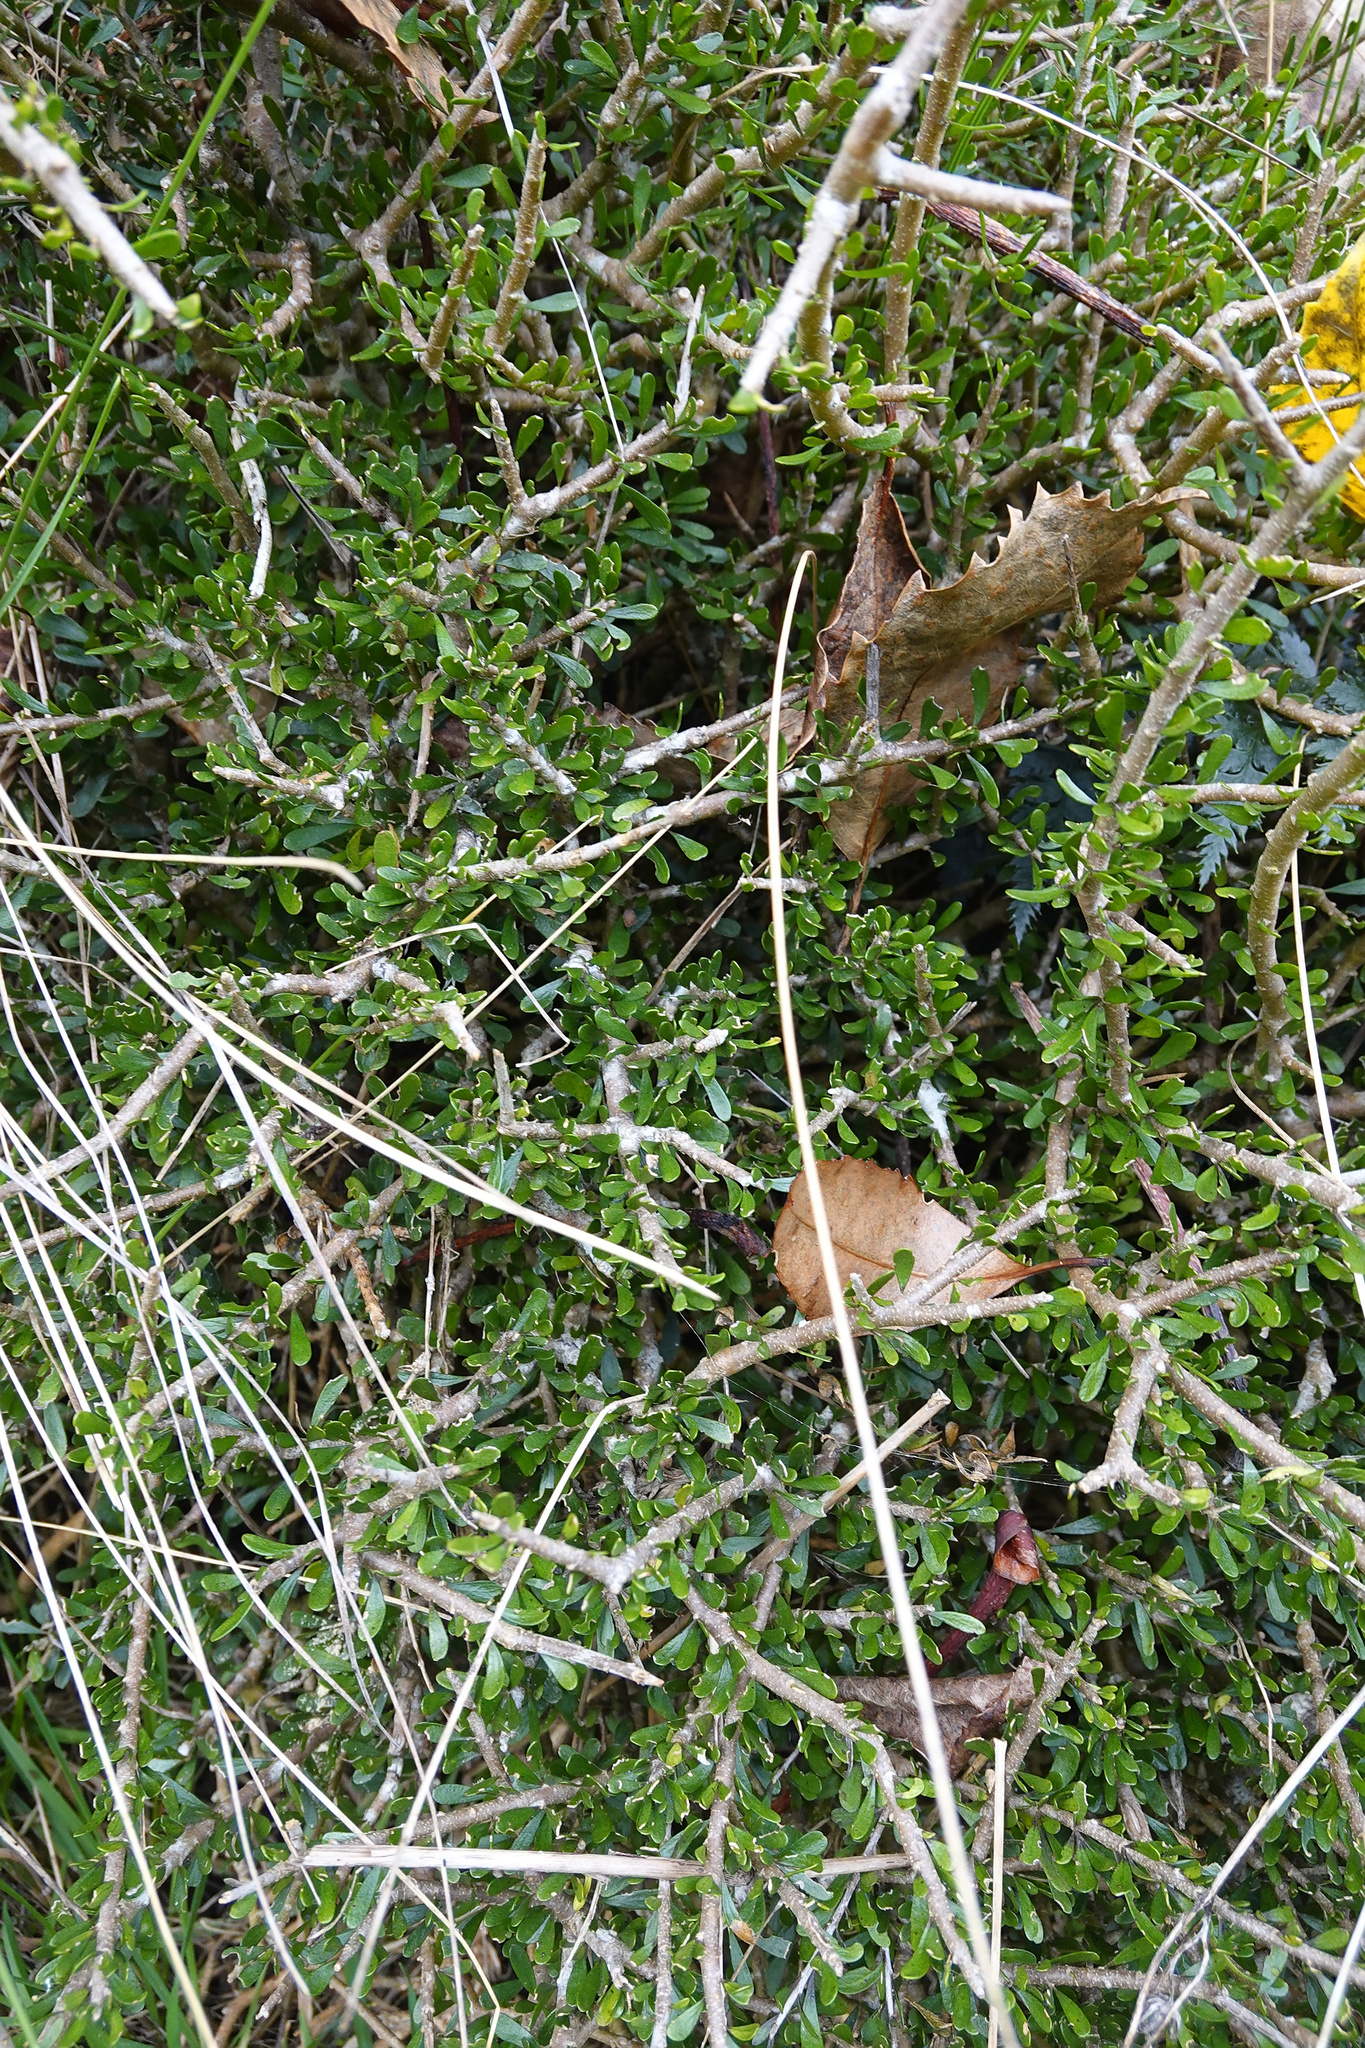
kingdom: Plantae
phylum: Tracheophyta
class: Magnoliopsida
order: Malpighiales
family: Violaceae
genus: Melicytus
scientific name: Melicytus alpinus
